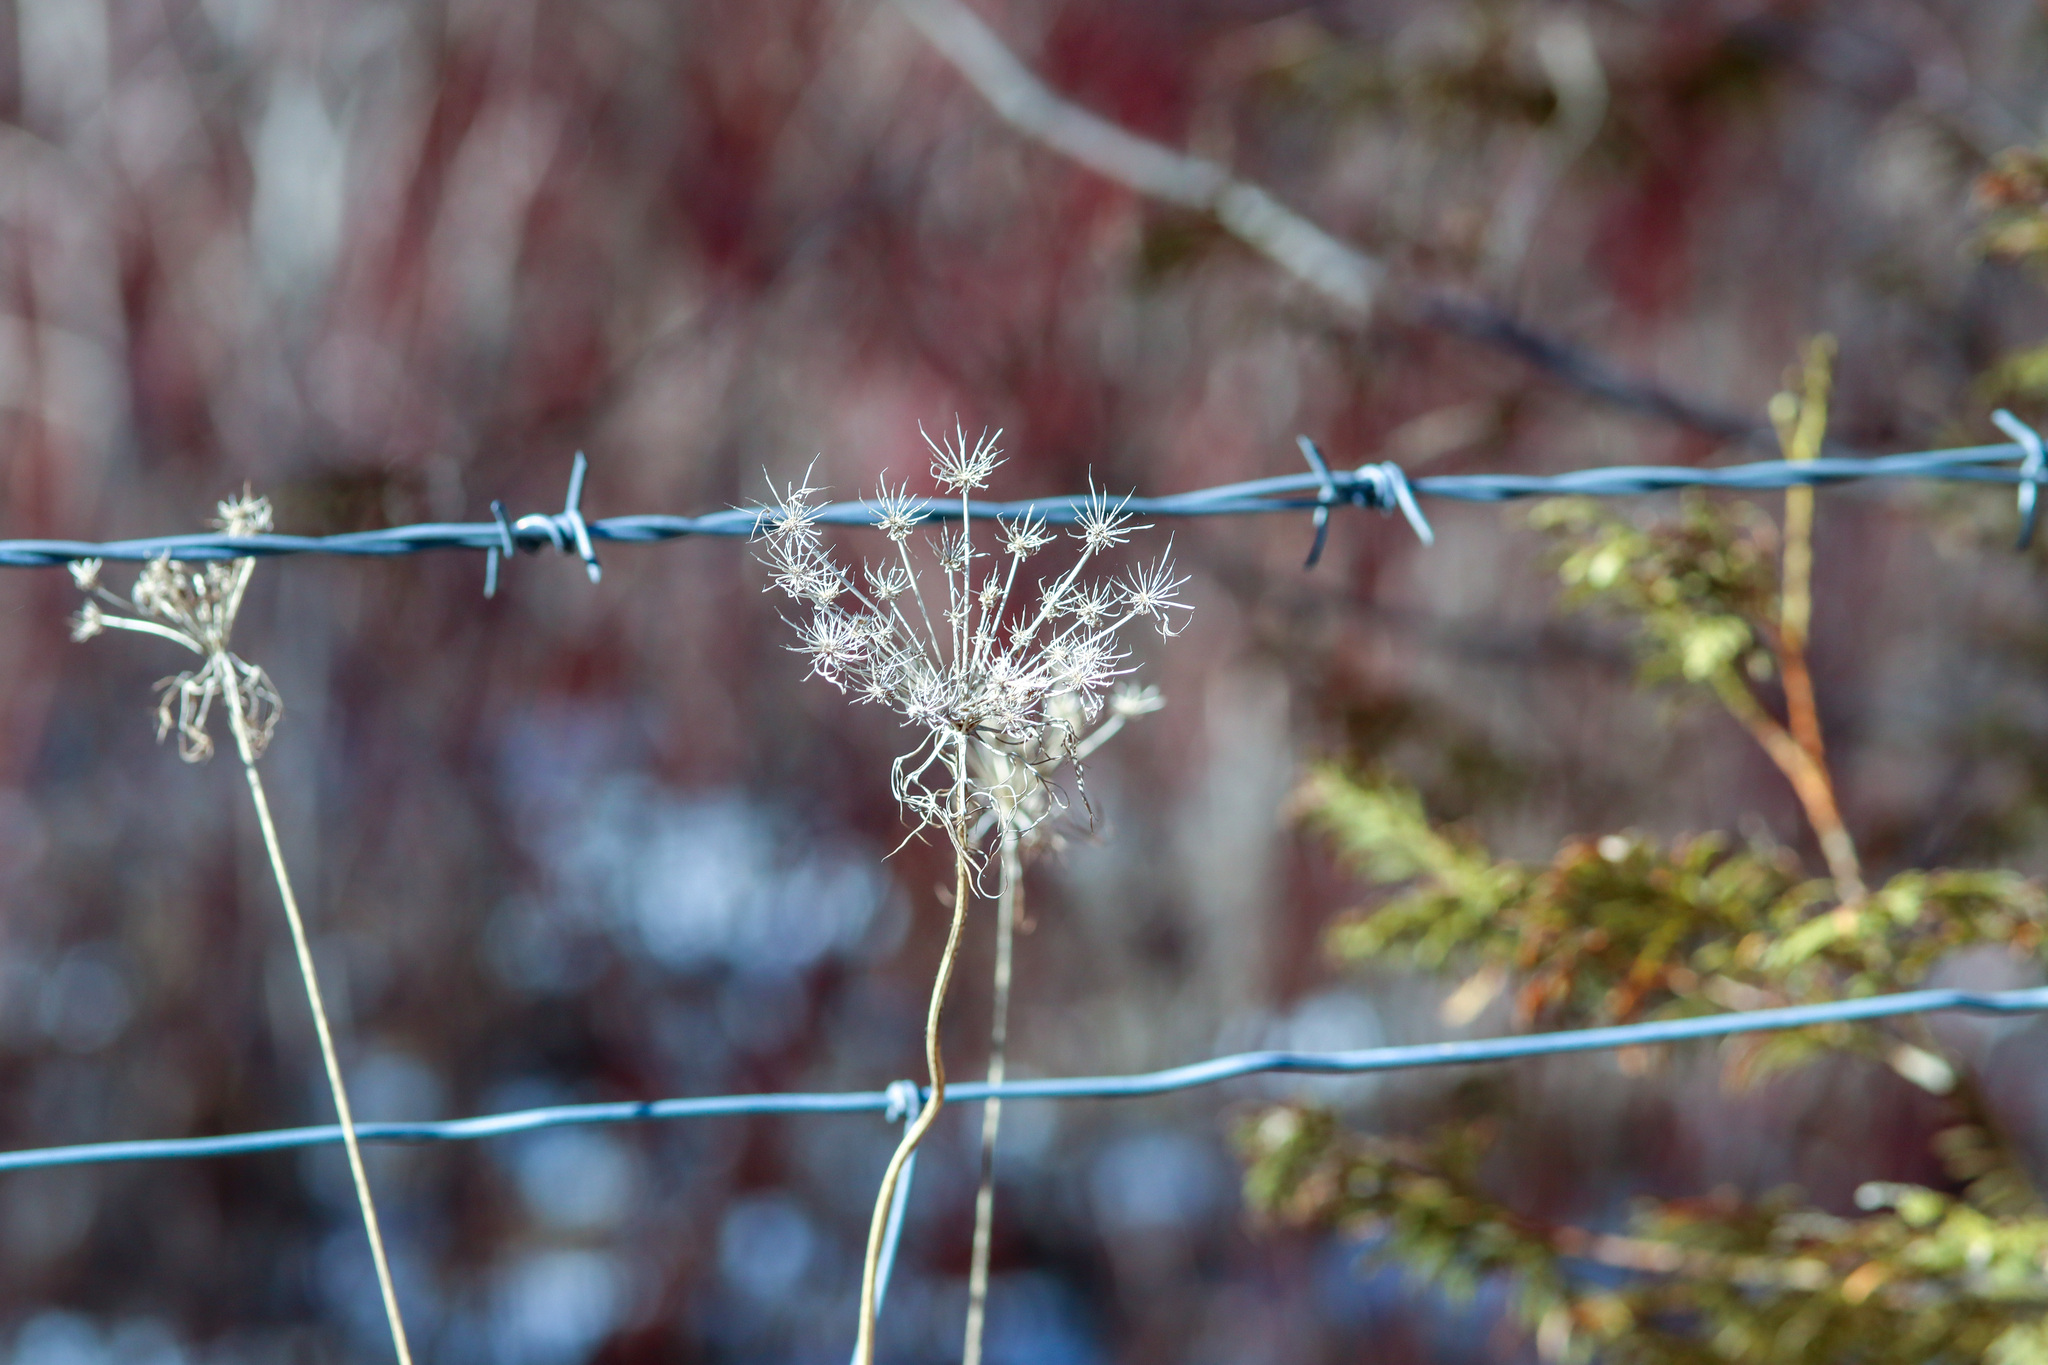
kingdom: Plantae
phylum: Tracheophyta
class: Magnoliopsida
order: Apiales
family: Apiaceae
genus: Daucus
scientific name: Daucus carota
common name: Wild carrot
